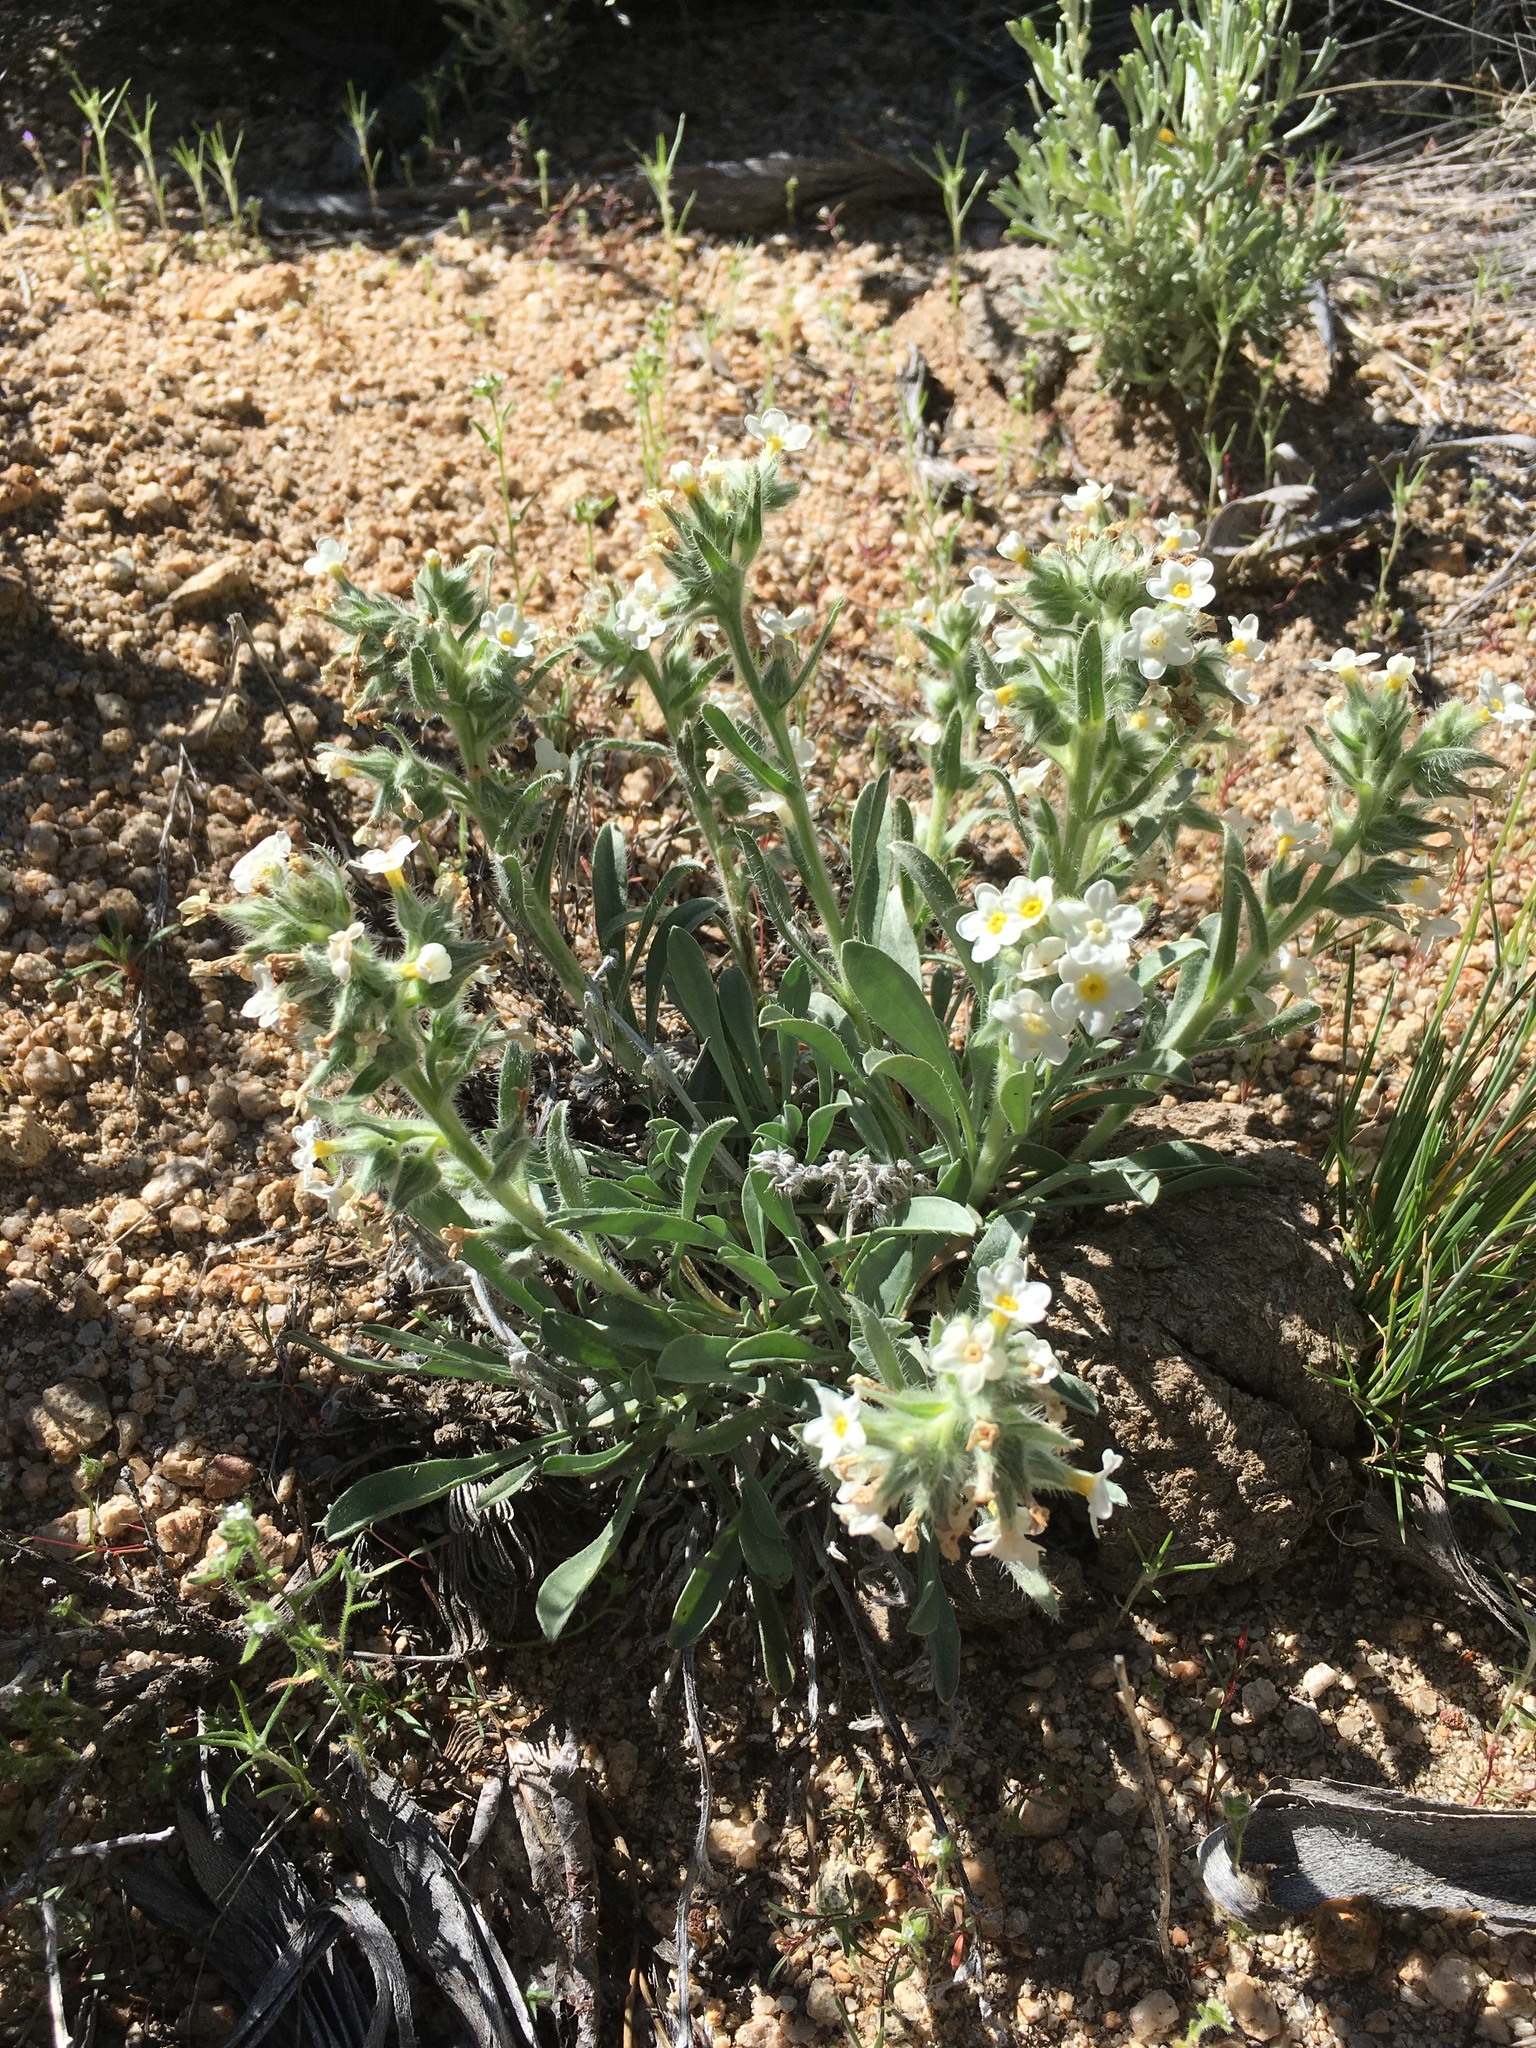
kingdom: Plantae
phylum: Tracheophyta
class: Magnoliopsida
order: Boraginales
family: Boraginaceae
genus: Oreocarya
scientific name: Oreocarya flavoculata
